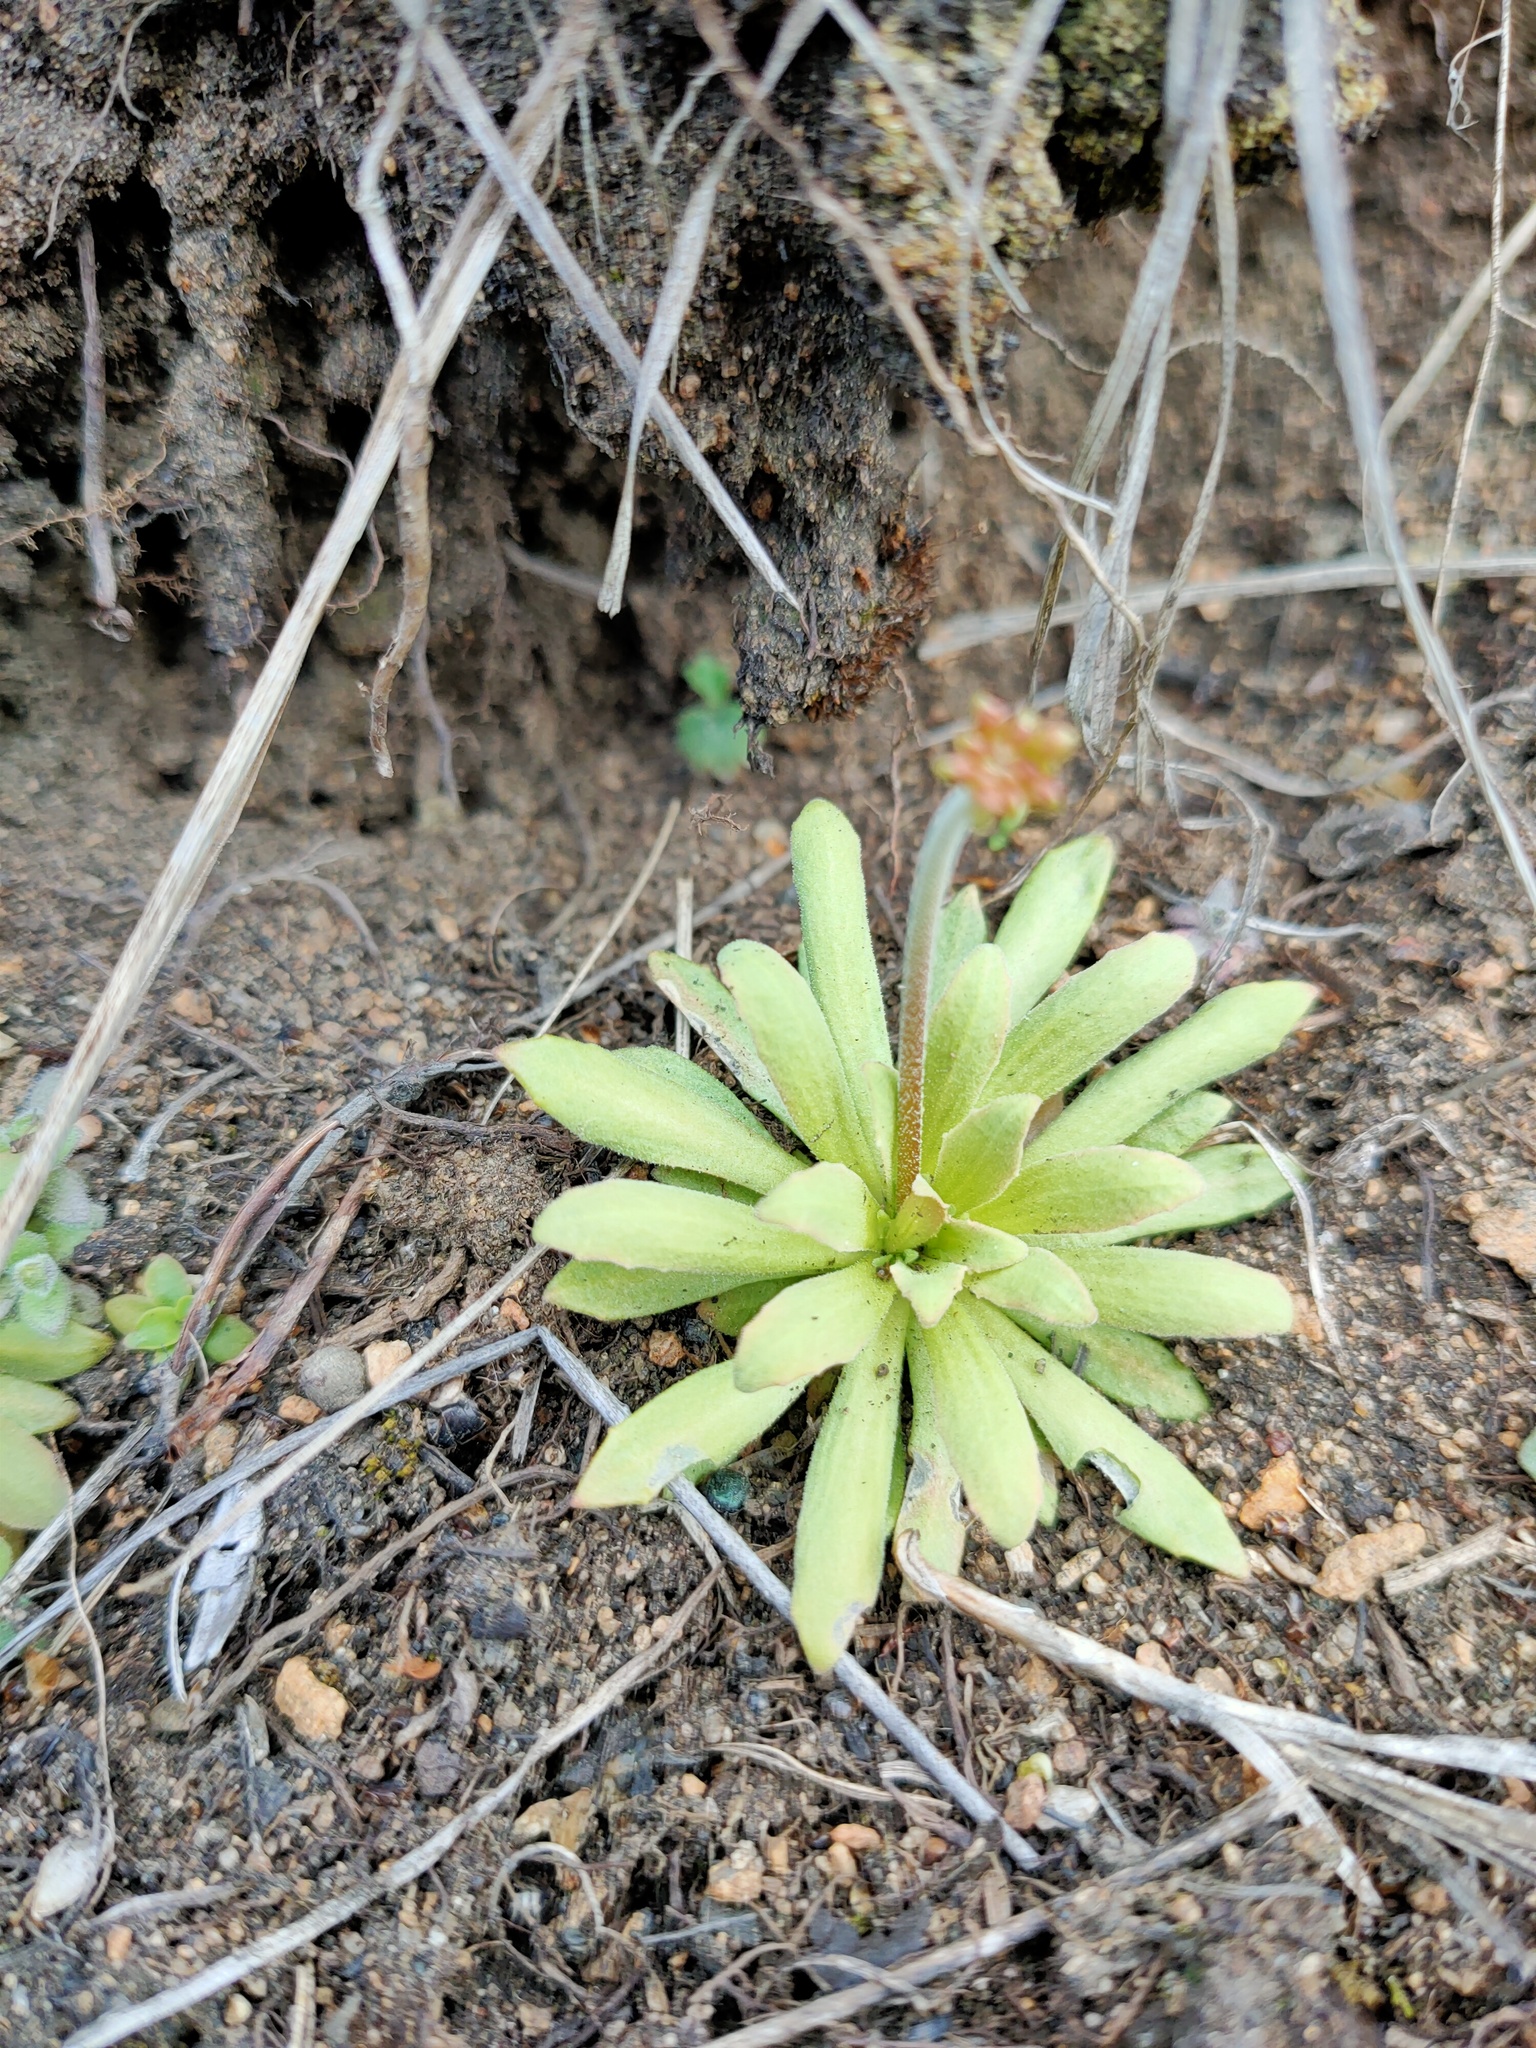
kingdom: Plantae
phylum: Tracheophyta
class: Magnoliopsida
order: Ericales
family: Primulaceae
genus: Androsace
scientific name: Androsace septentrionalis
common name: Hairy northern fairy-candelabra
